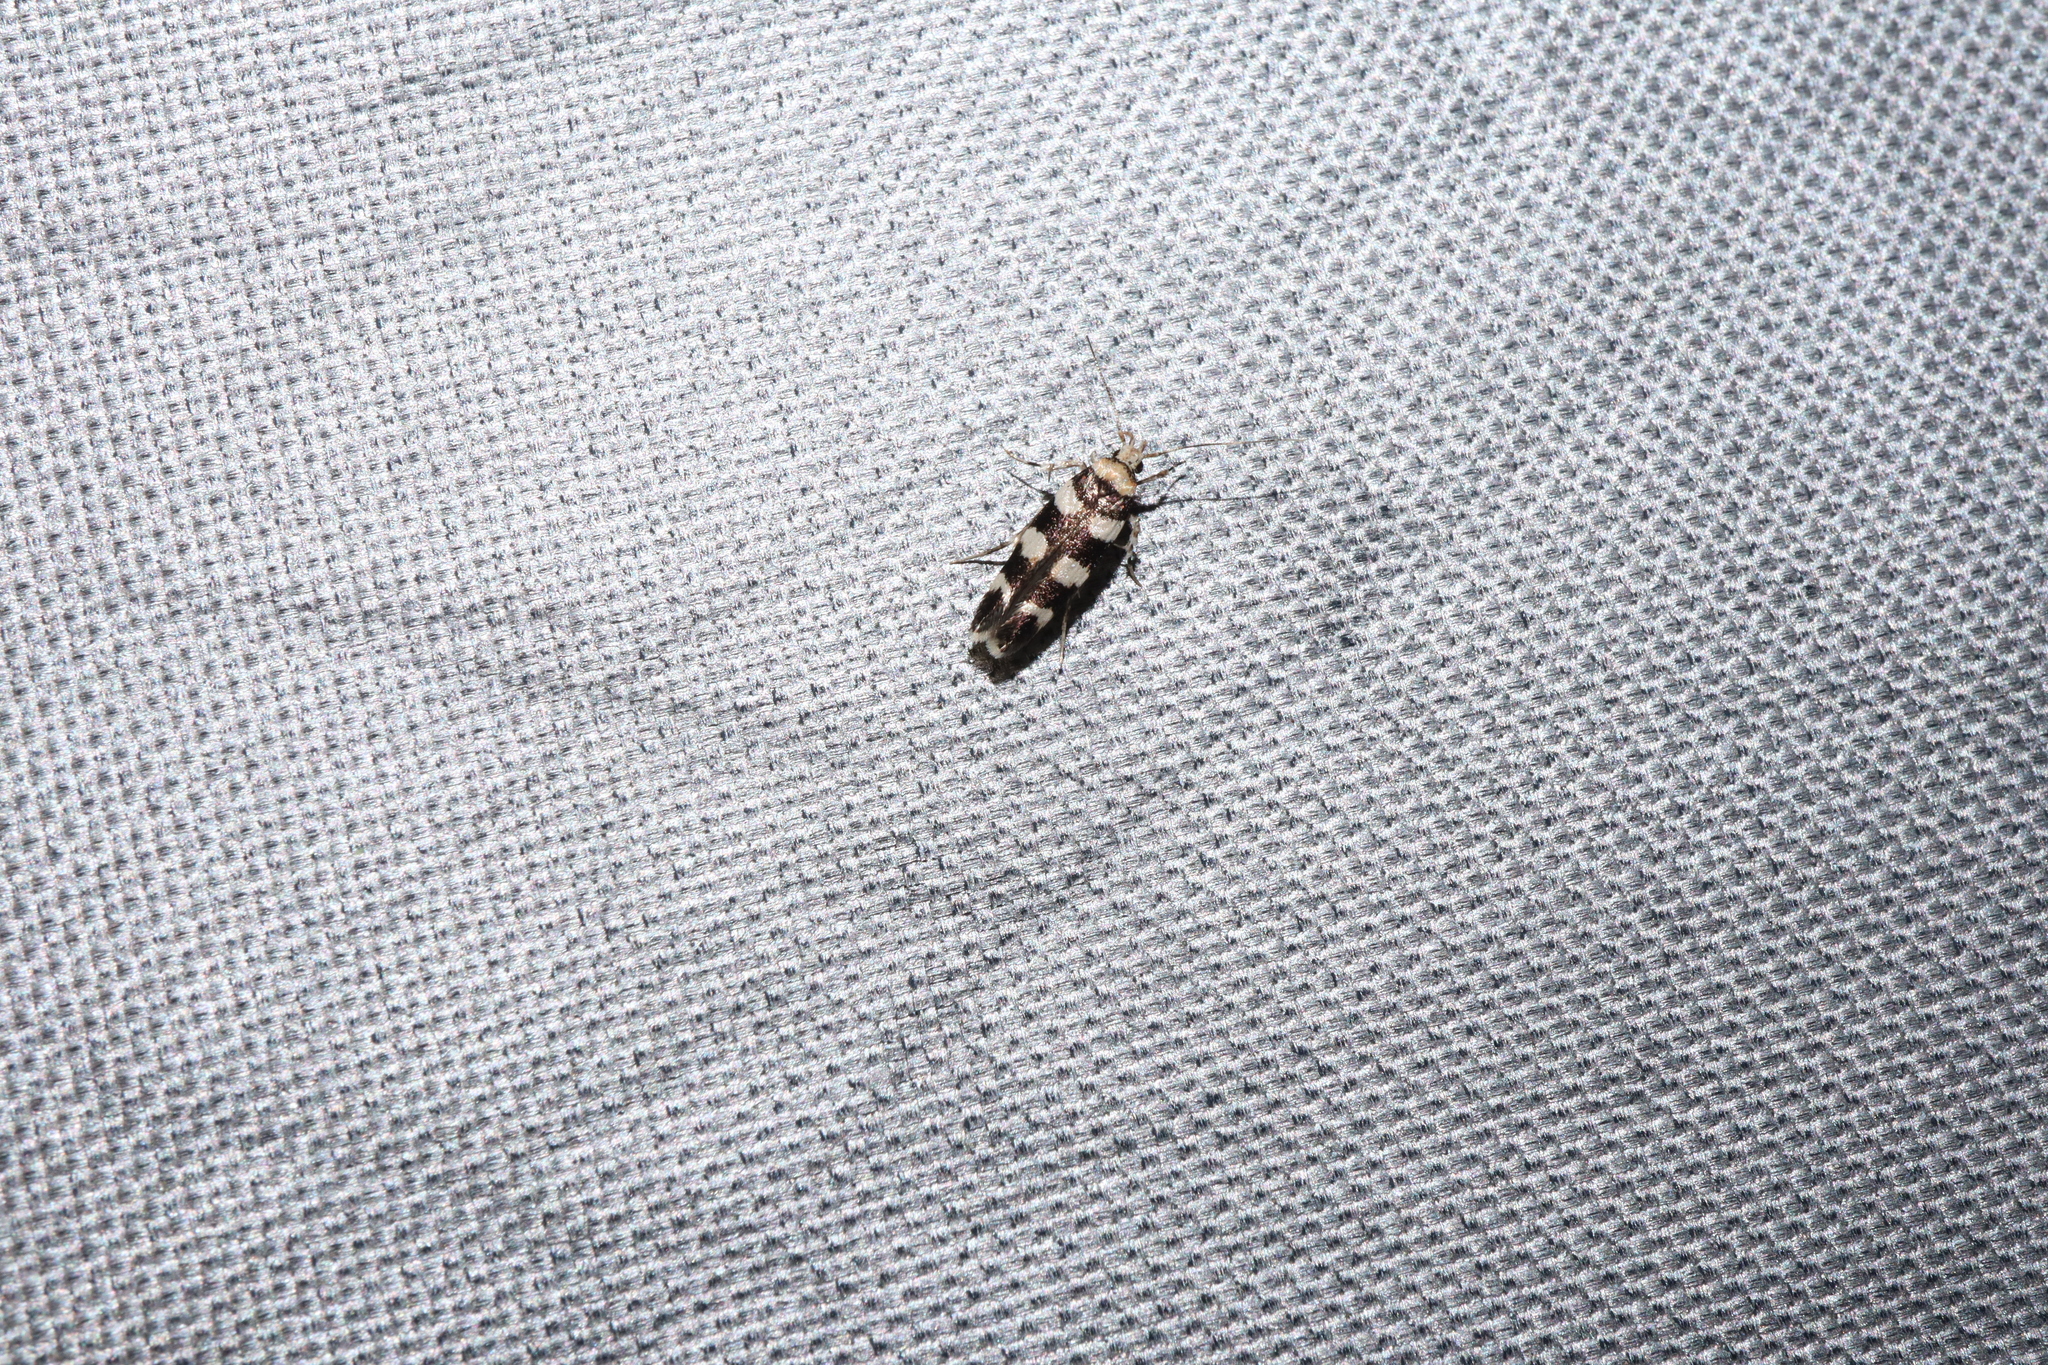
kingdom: Animalia
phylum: Arthropoda
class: Insecta
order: Lepidoptera
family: Cosmopterigidae
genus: Limnaecia
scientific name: Limnaecia camptosema
